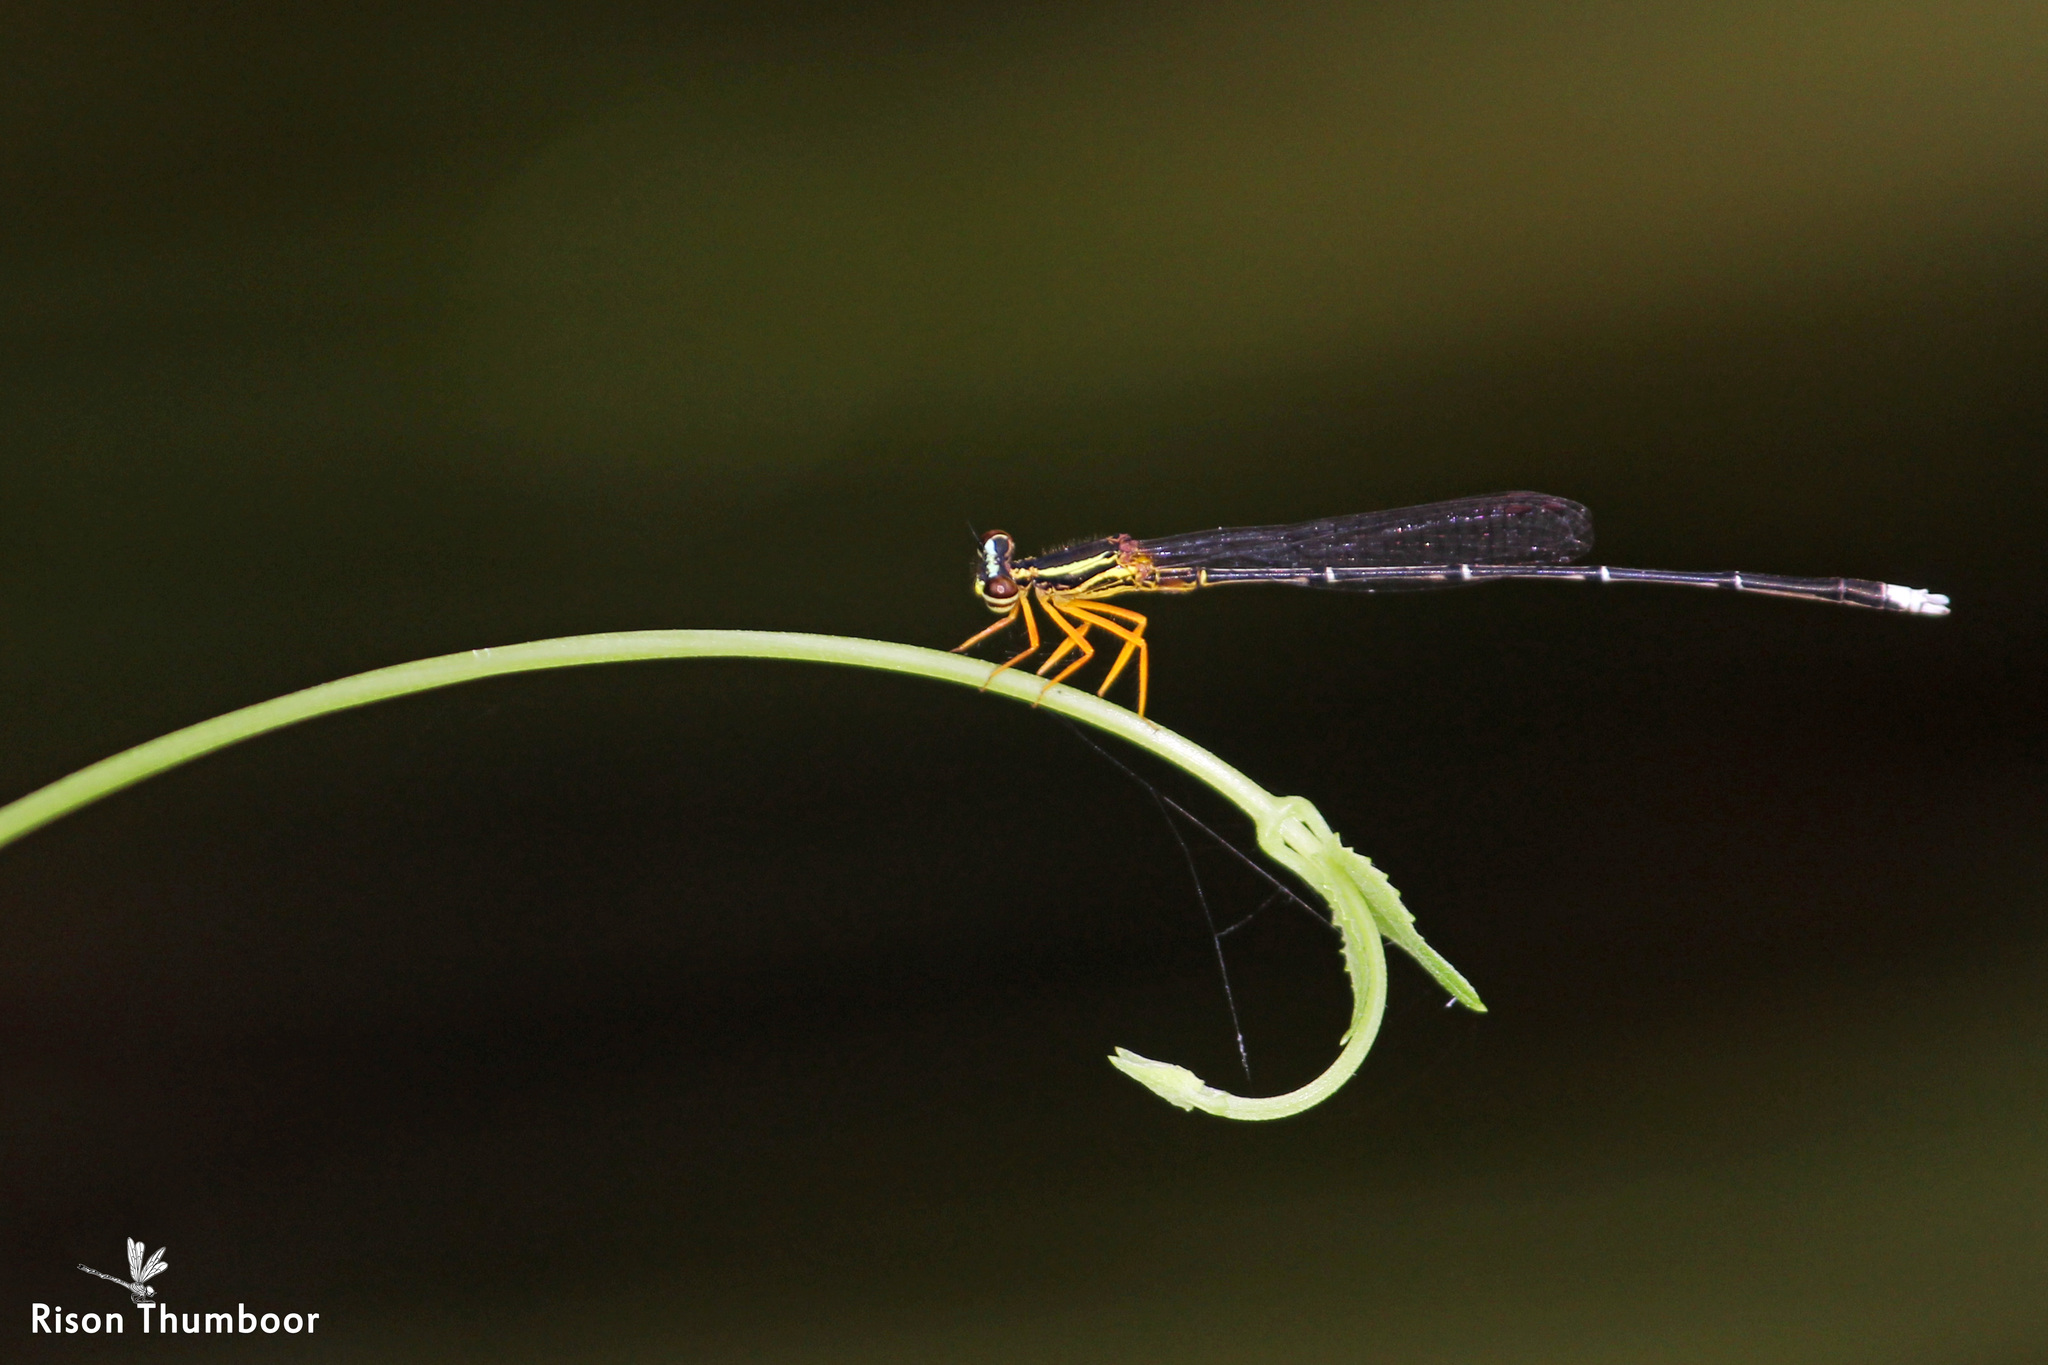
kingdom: Animalia
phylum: Arthropoda
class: Insecta
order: Odonata
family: Platycnemididae
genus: Copera
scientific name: Copera marginipes
